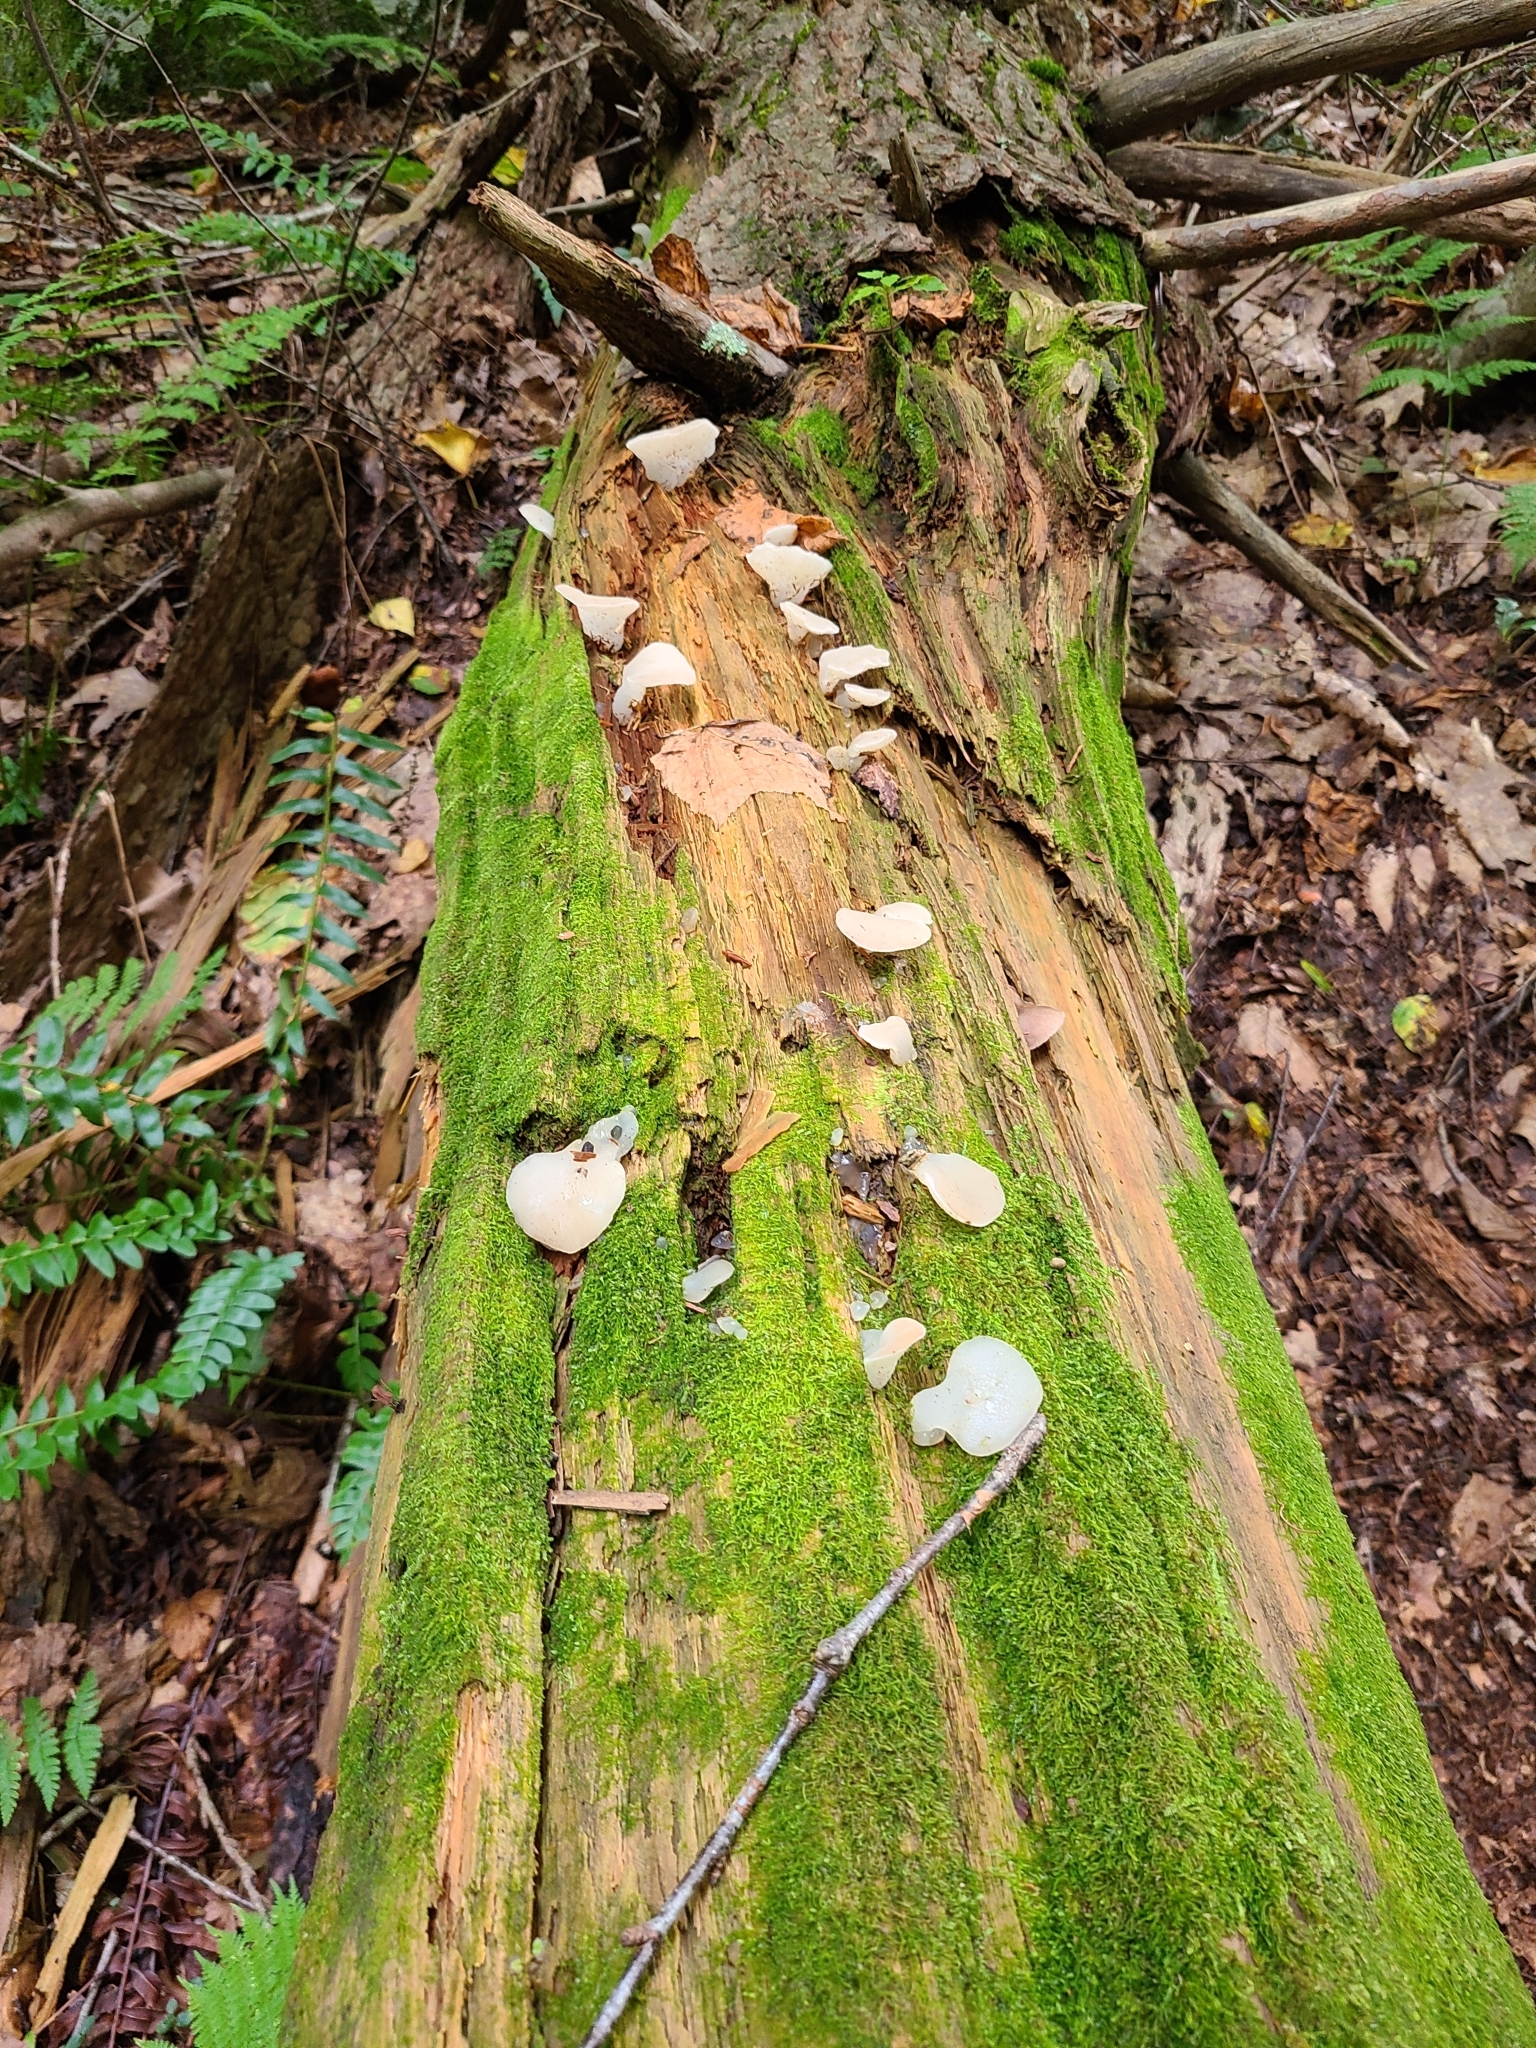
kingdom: Fungi
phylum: Basidiomycota
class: Agaricomycetes
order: Auriculariales
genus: Pseudohydnum
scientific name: Pseudohydnum gelatinosum
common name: Jelly tongue
